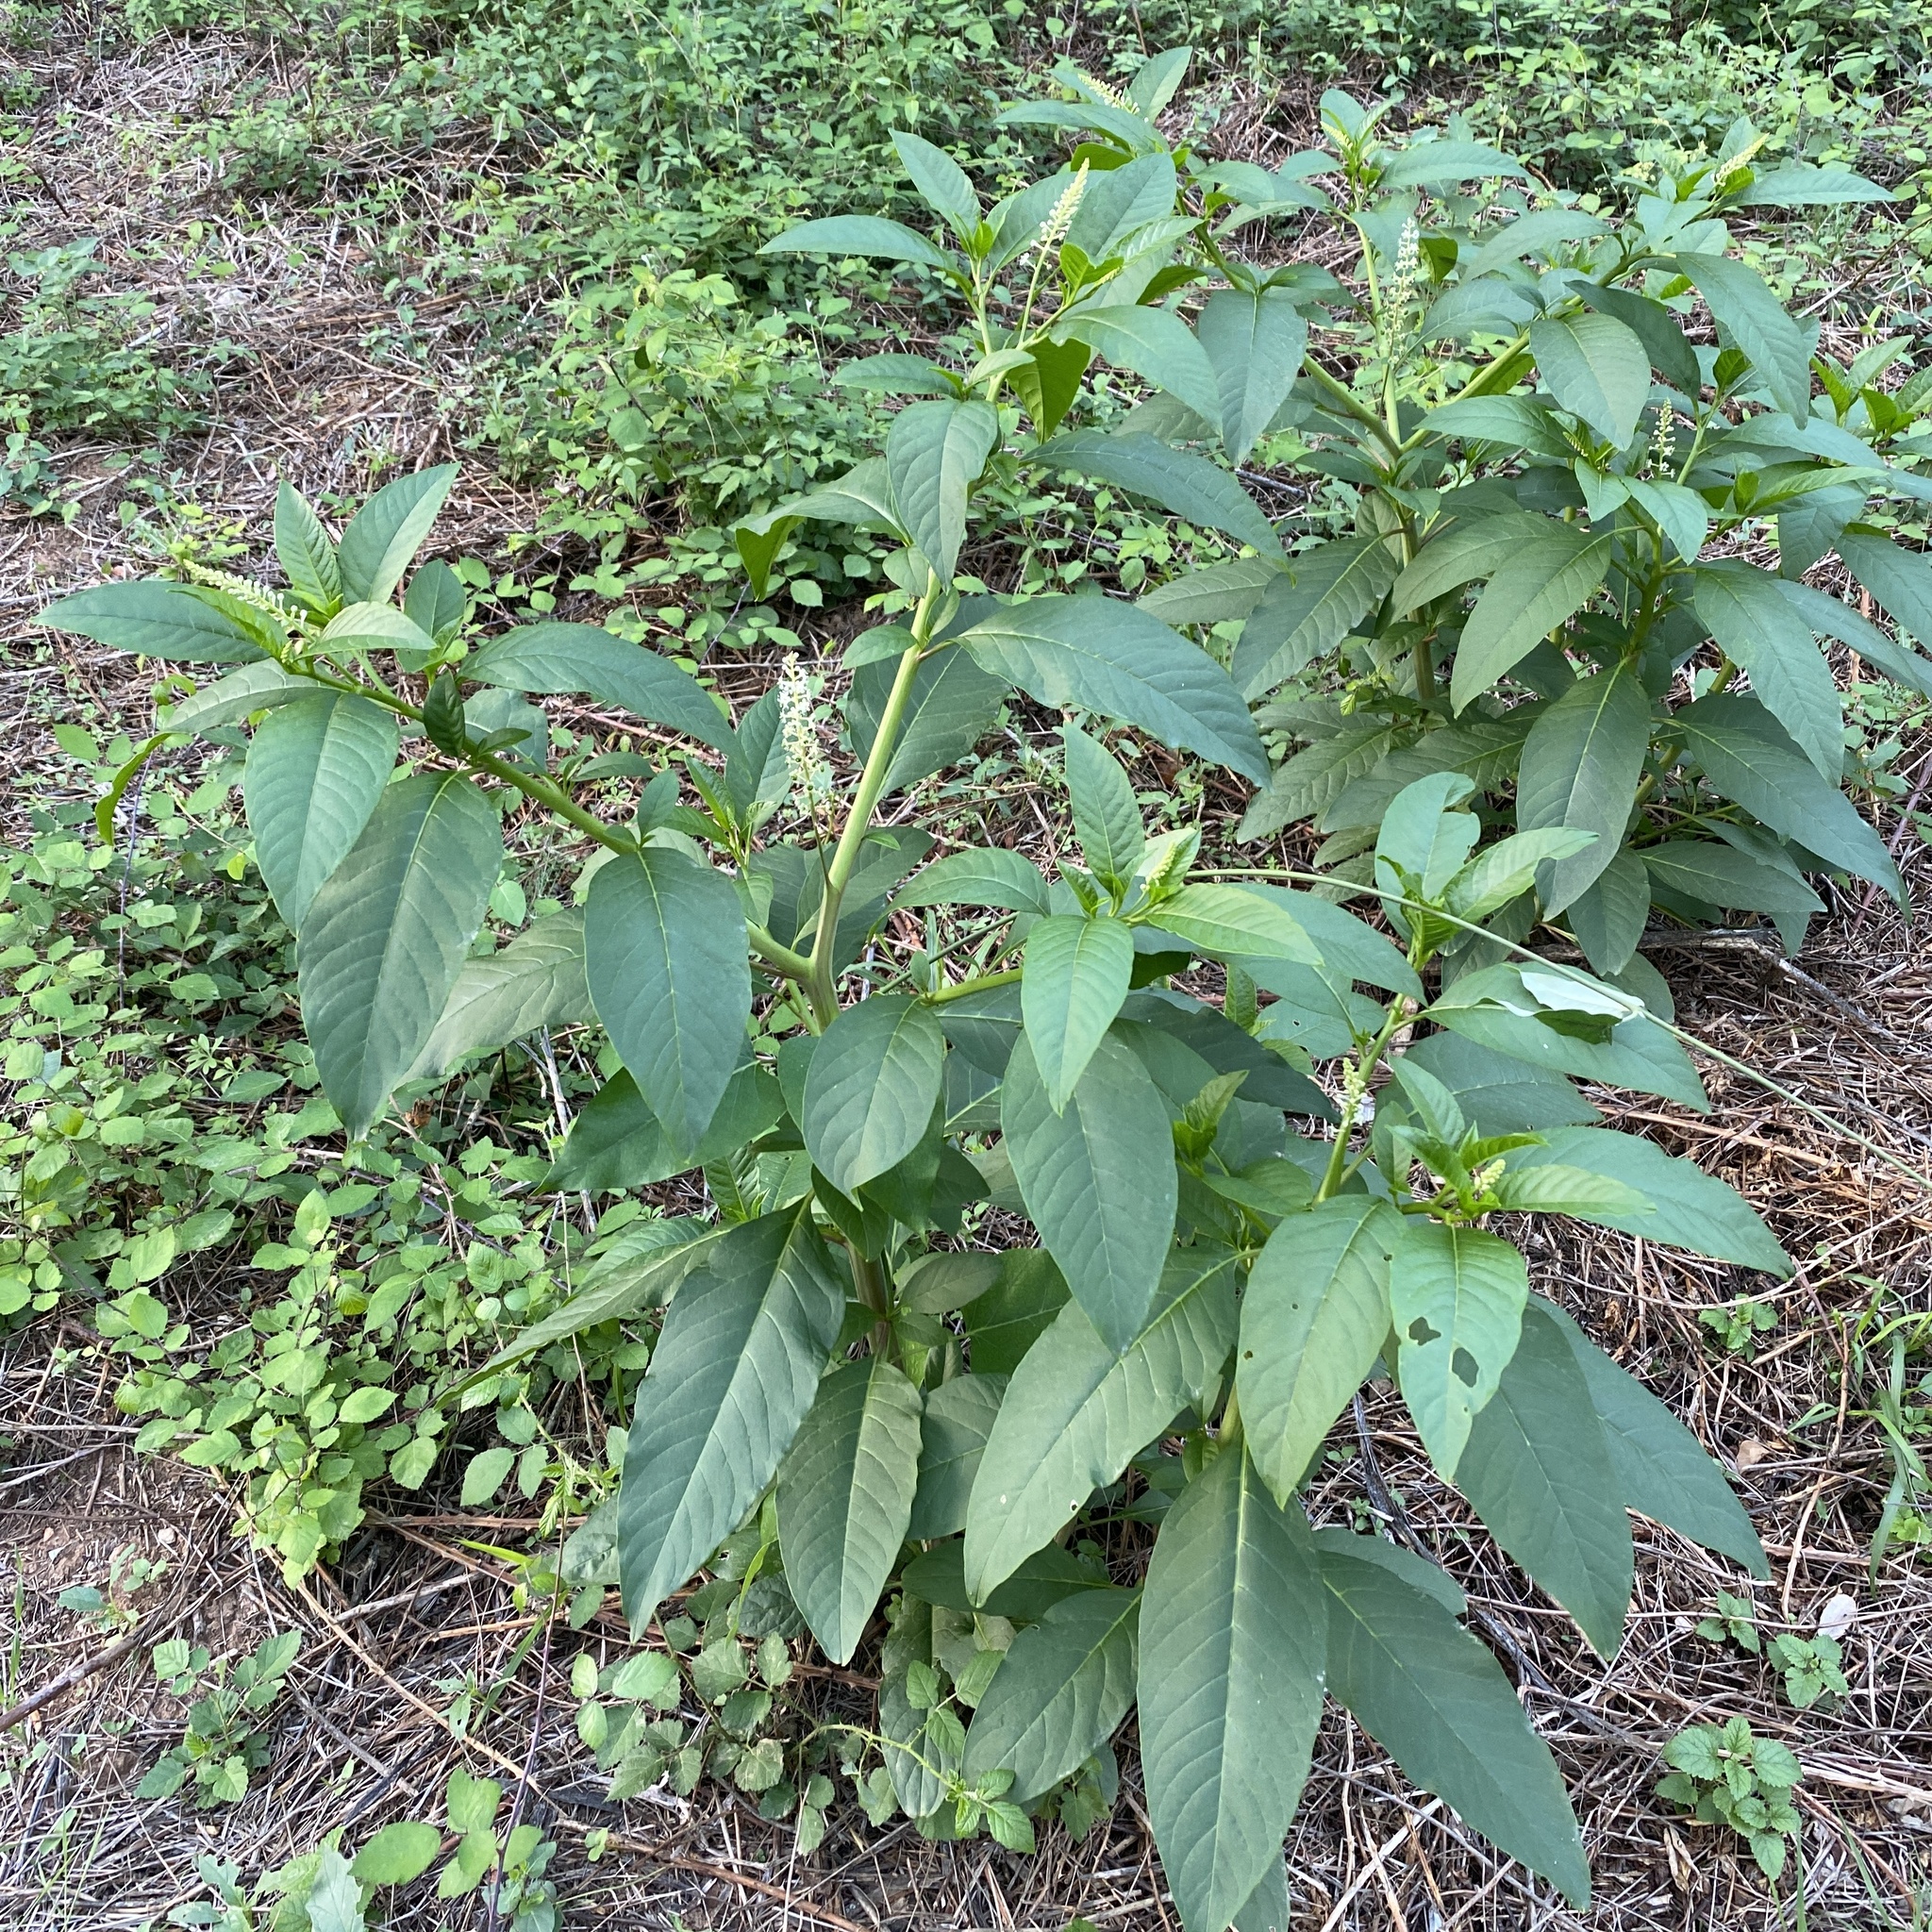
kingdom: Plantae
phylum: Tracheophyta
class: Magnoliopsida
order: Caryophyllales
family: Phytolaccaceae
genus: Phytolacca
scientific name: Phytolacca americana
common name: American pokeweed
